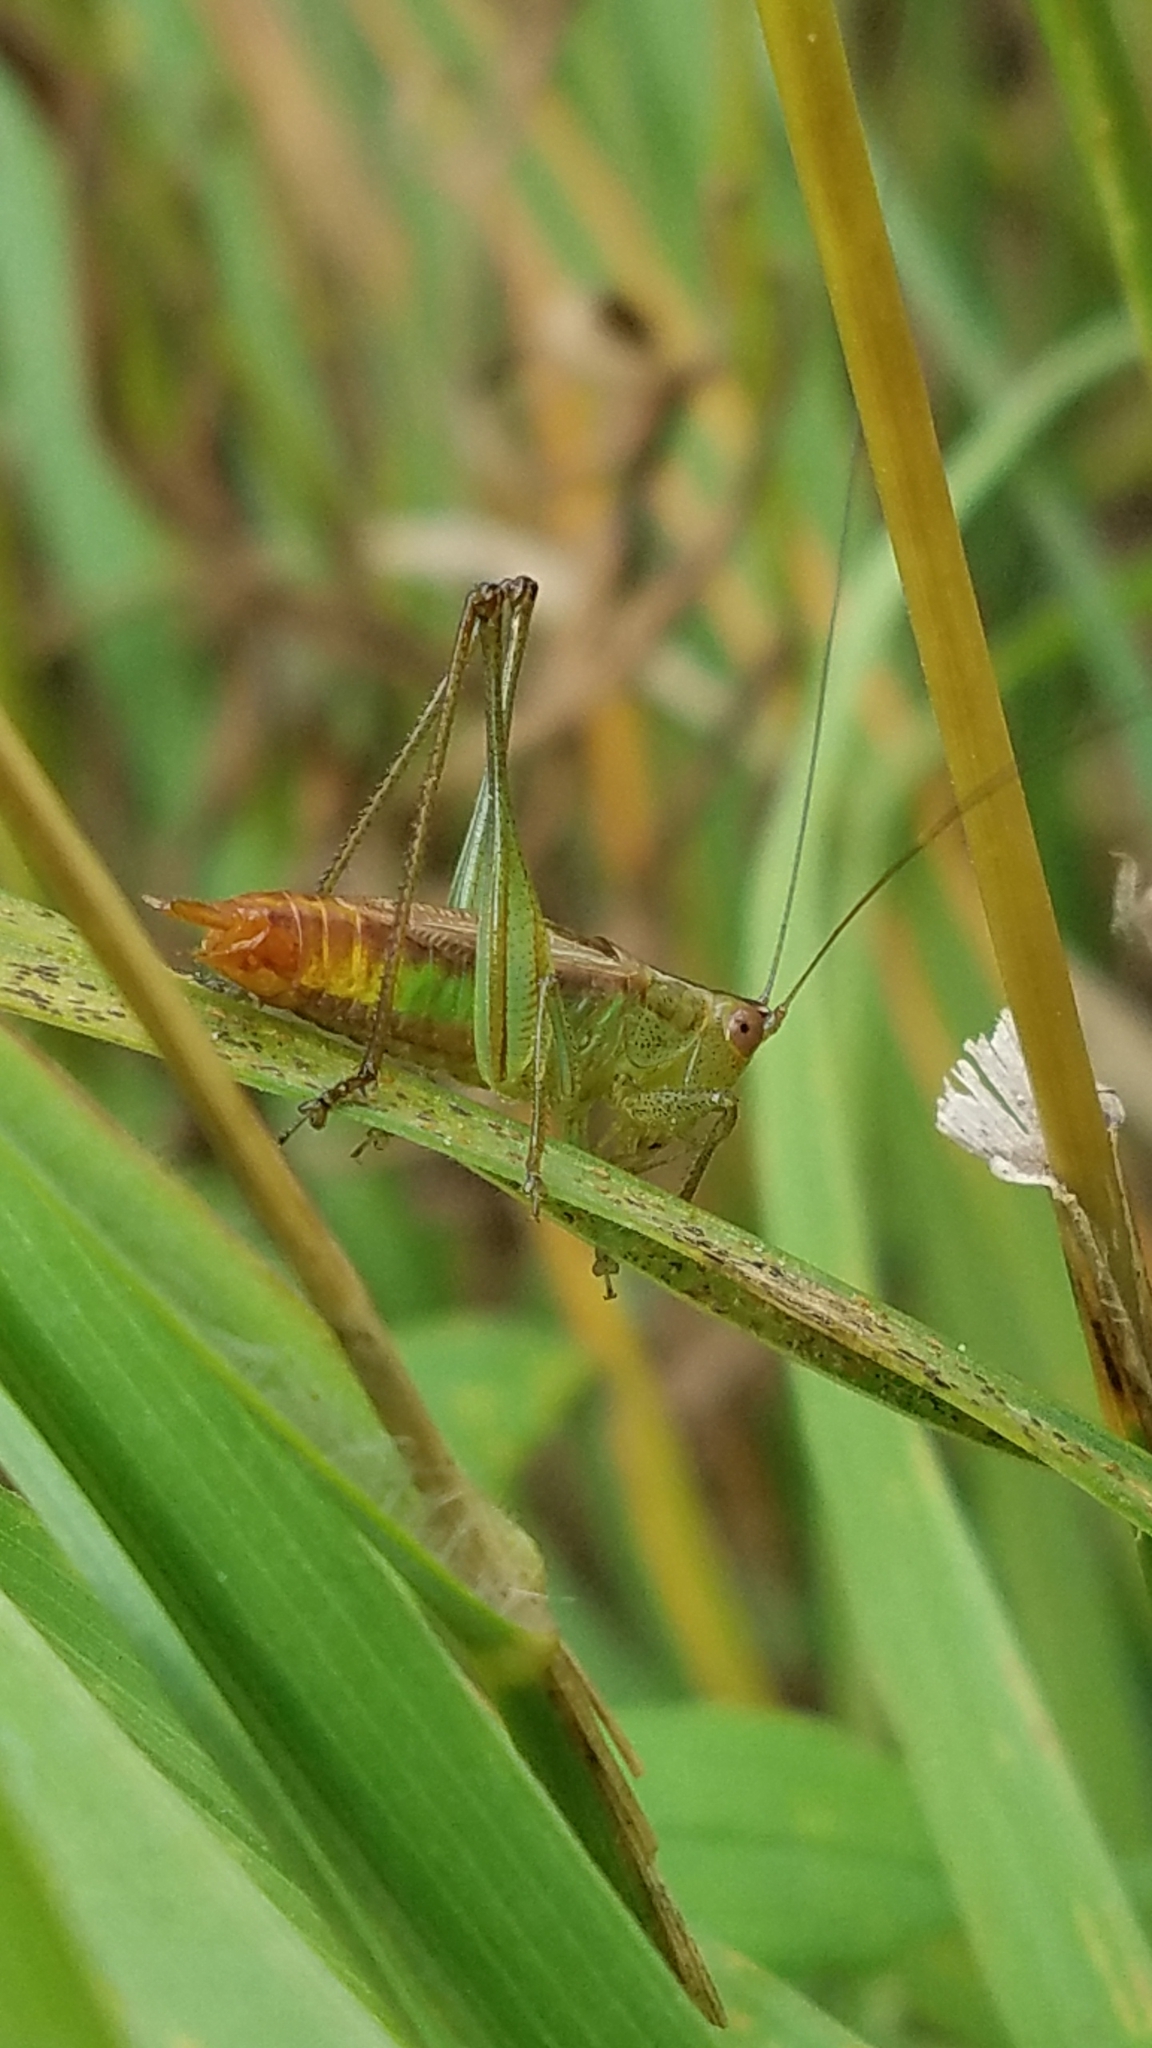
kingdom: Animalia
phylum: Arthropoda
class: Insecta
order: Orthoptera
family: Tettigoniidae
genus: Conocephalus
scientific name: Conocephalus brevipennis
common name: Short-winged meadow katydid
